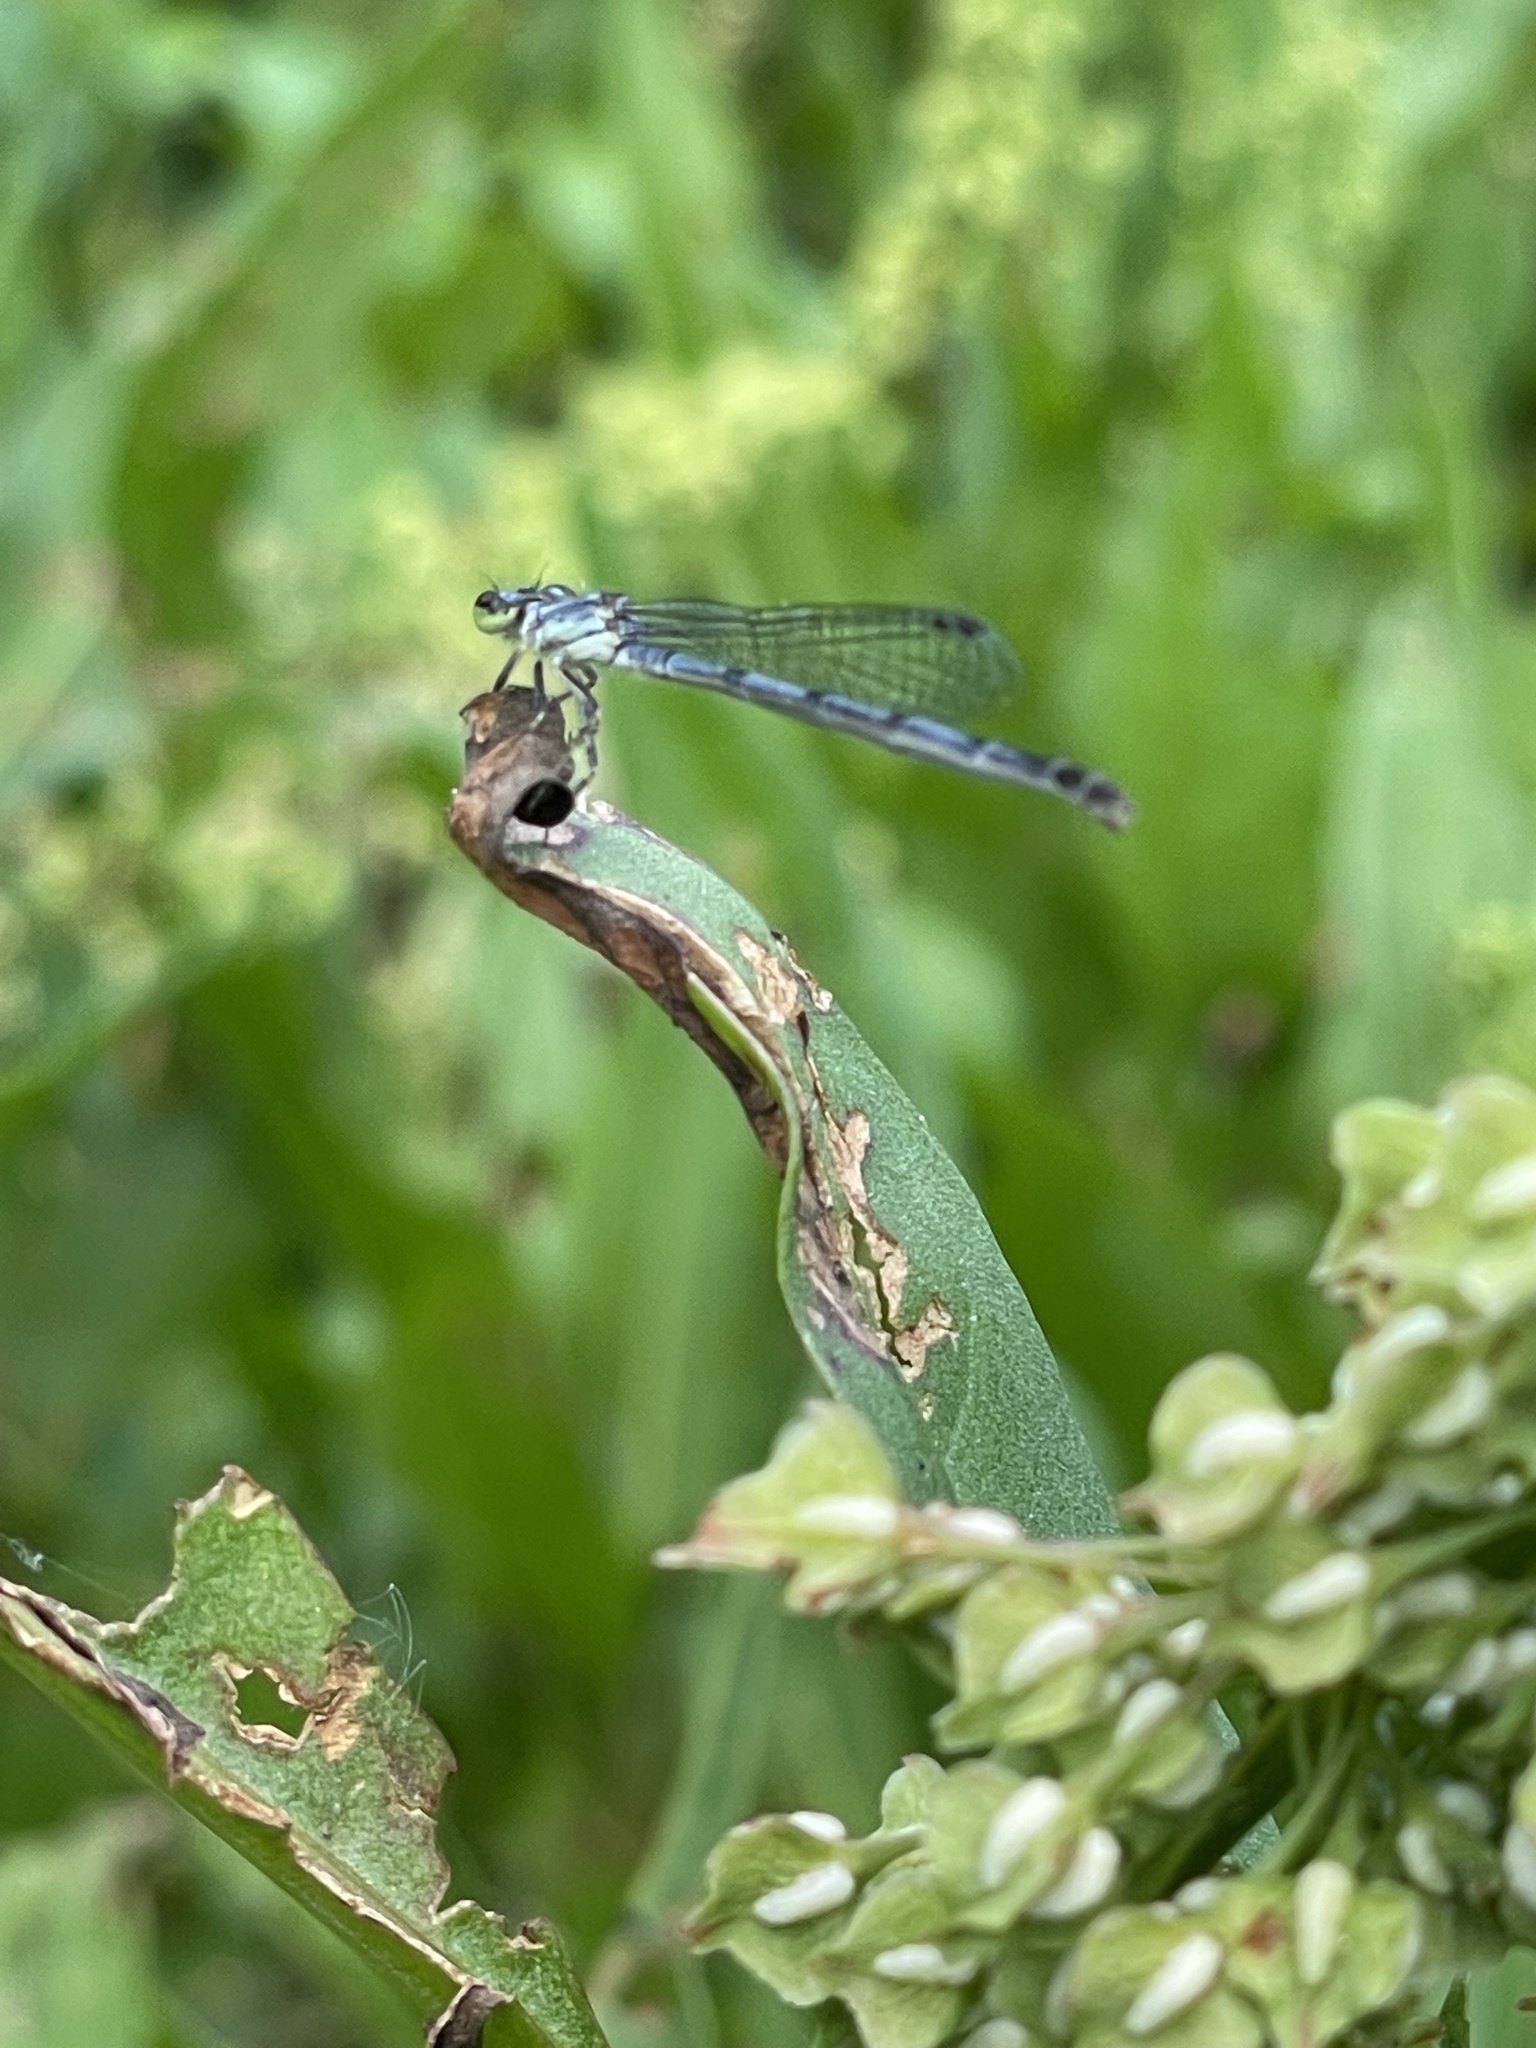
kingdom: Animalia
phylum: Arthropoda
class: Insecta
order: Odonata
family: Coenagrionidae
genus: Ischnura
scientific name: Ischnura posita
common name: Fragile forktail
